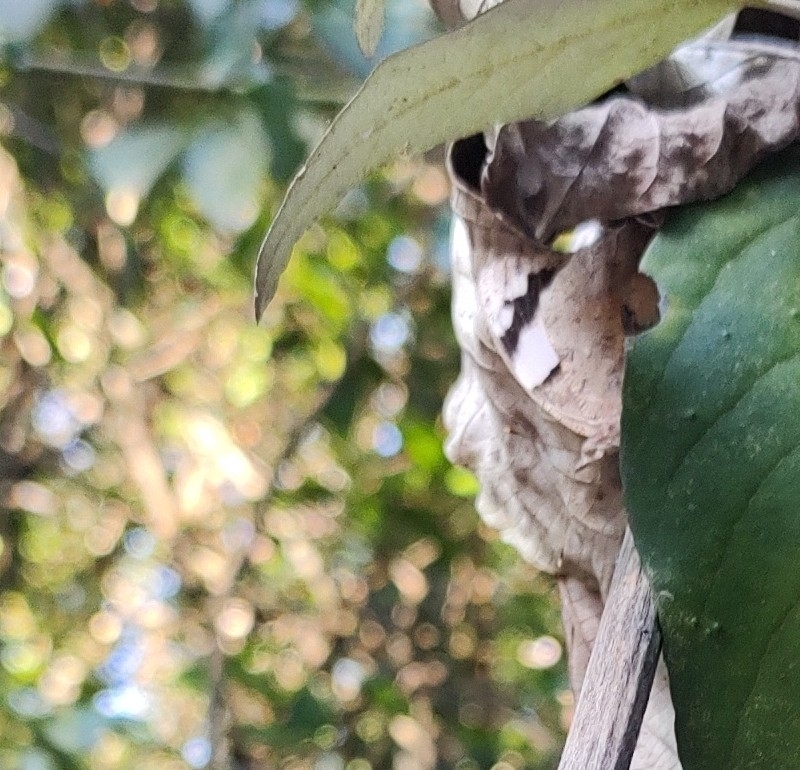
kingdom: Animalia
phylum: Arthropoda
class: Insecta
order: Lepidoptera
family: Nymphalidae
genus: Eunica
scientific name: Eunica eburnea
